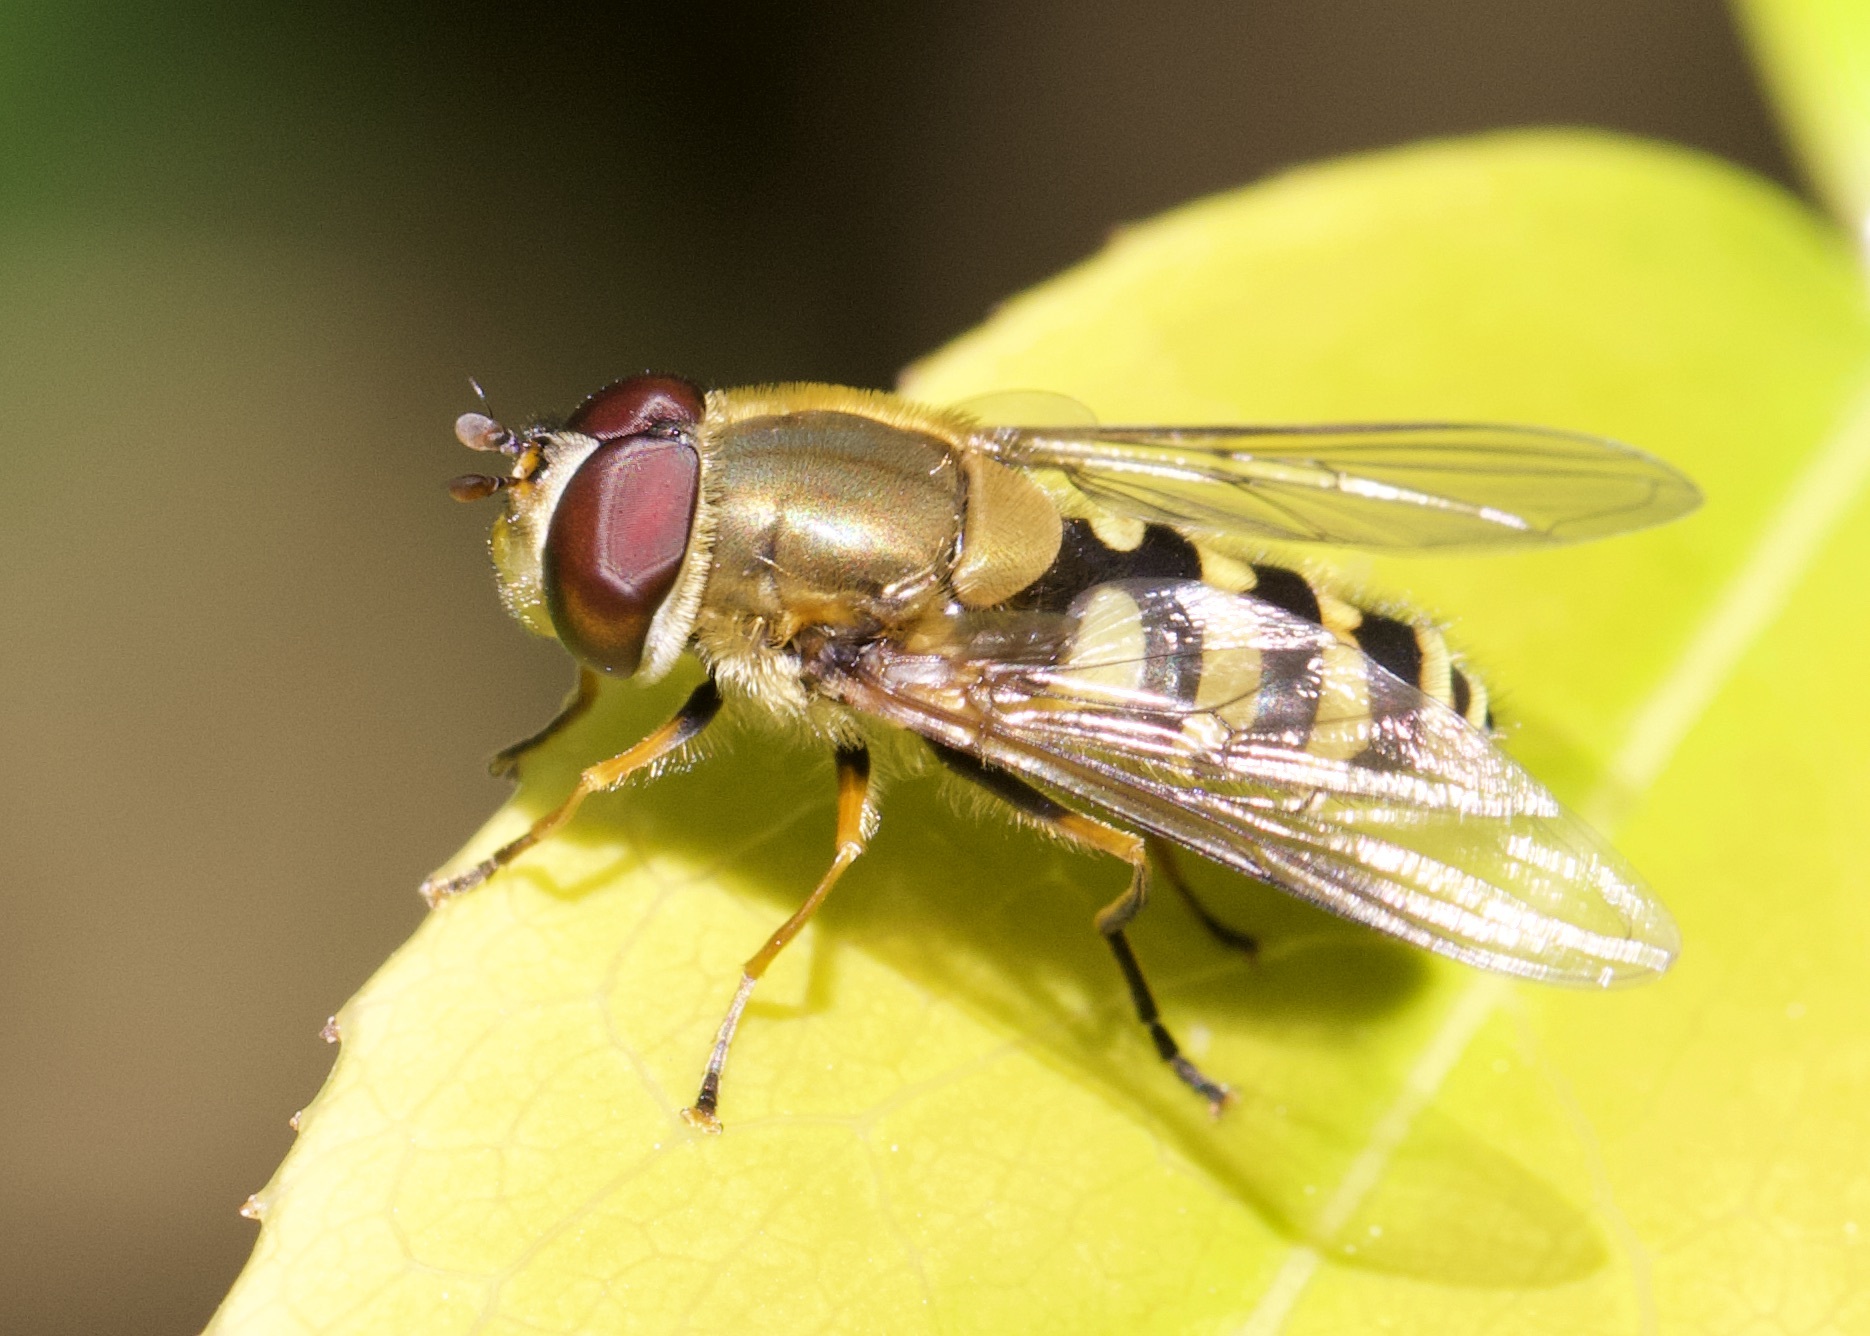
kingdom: Animalia
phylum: Arthropoda
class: Insecta
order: Diptera
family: Syrphidae
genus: Syrphus
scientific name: Syrphus torvus
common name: Hairy-eyed flower fly
